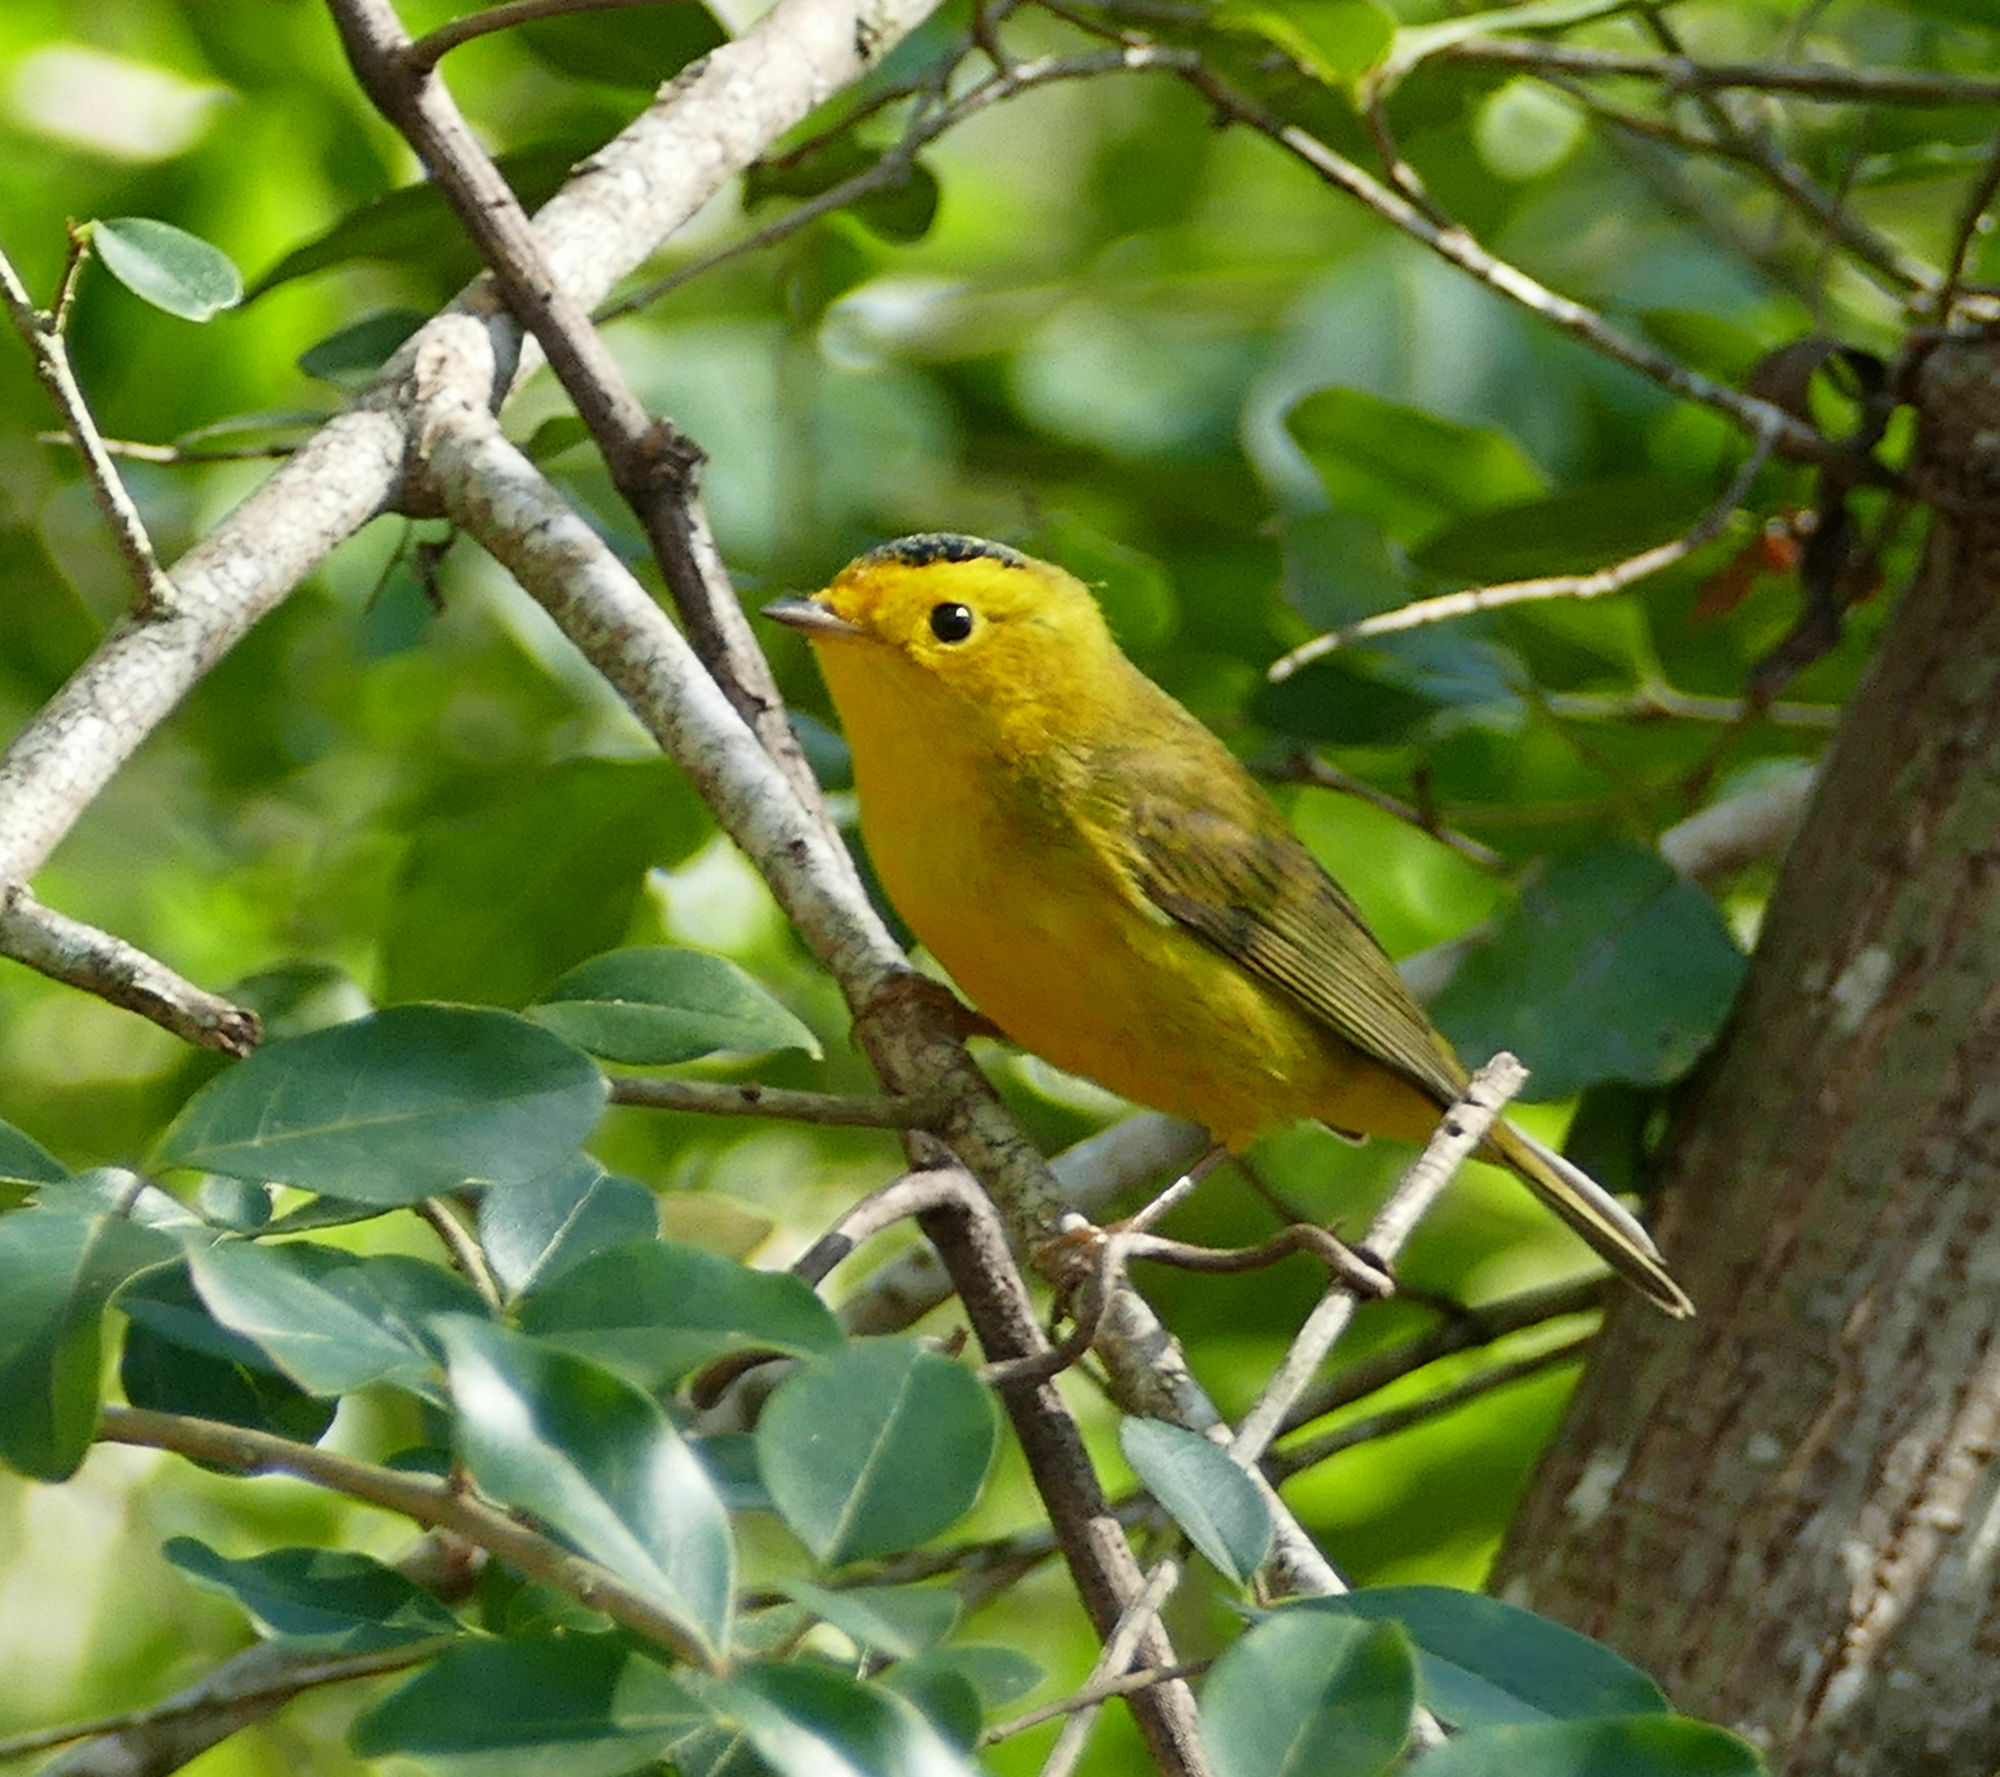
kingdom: Animalia
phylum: Chordata
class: Aves
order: Passeriformes
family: Parulidae
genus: Cardellina
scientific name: Cardellina pusilla
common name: Wilson's warbler
